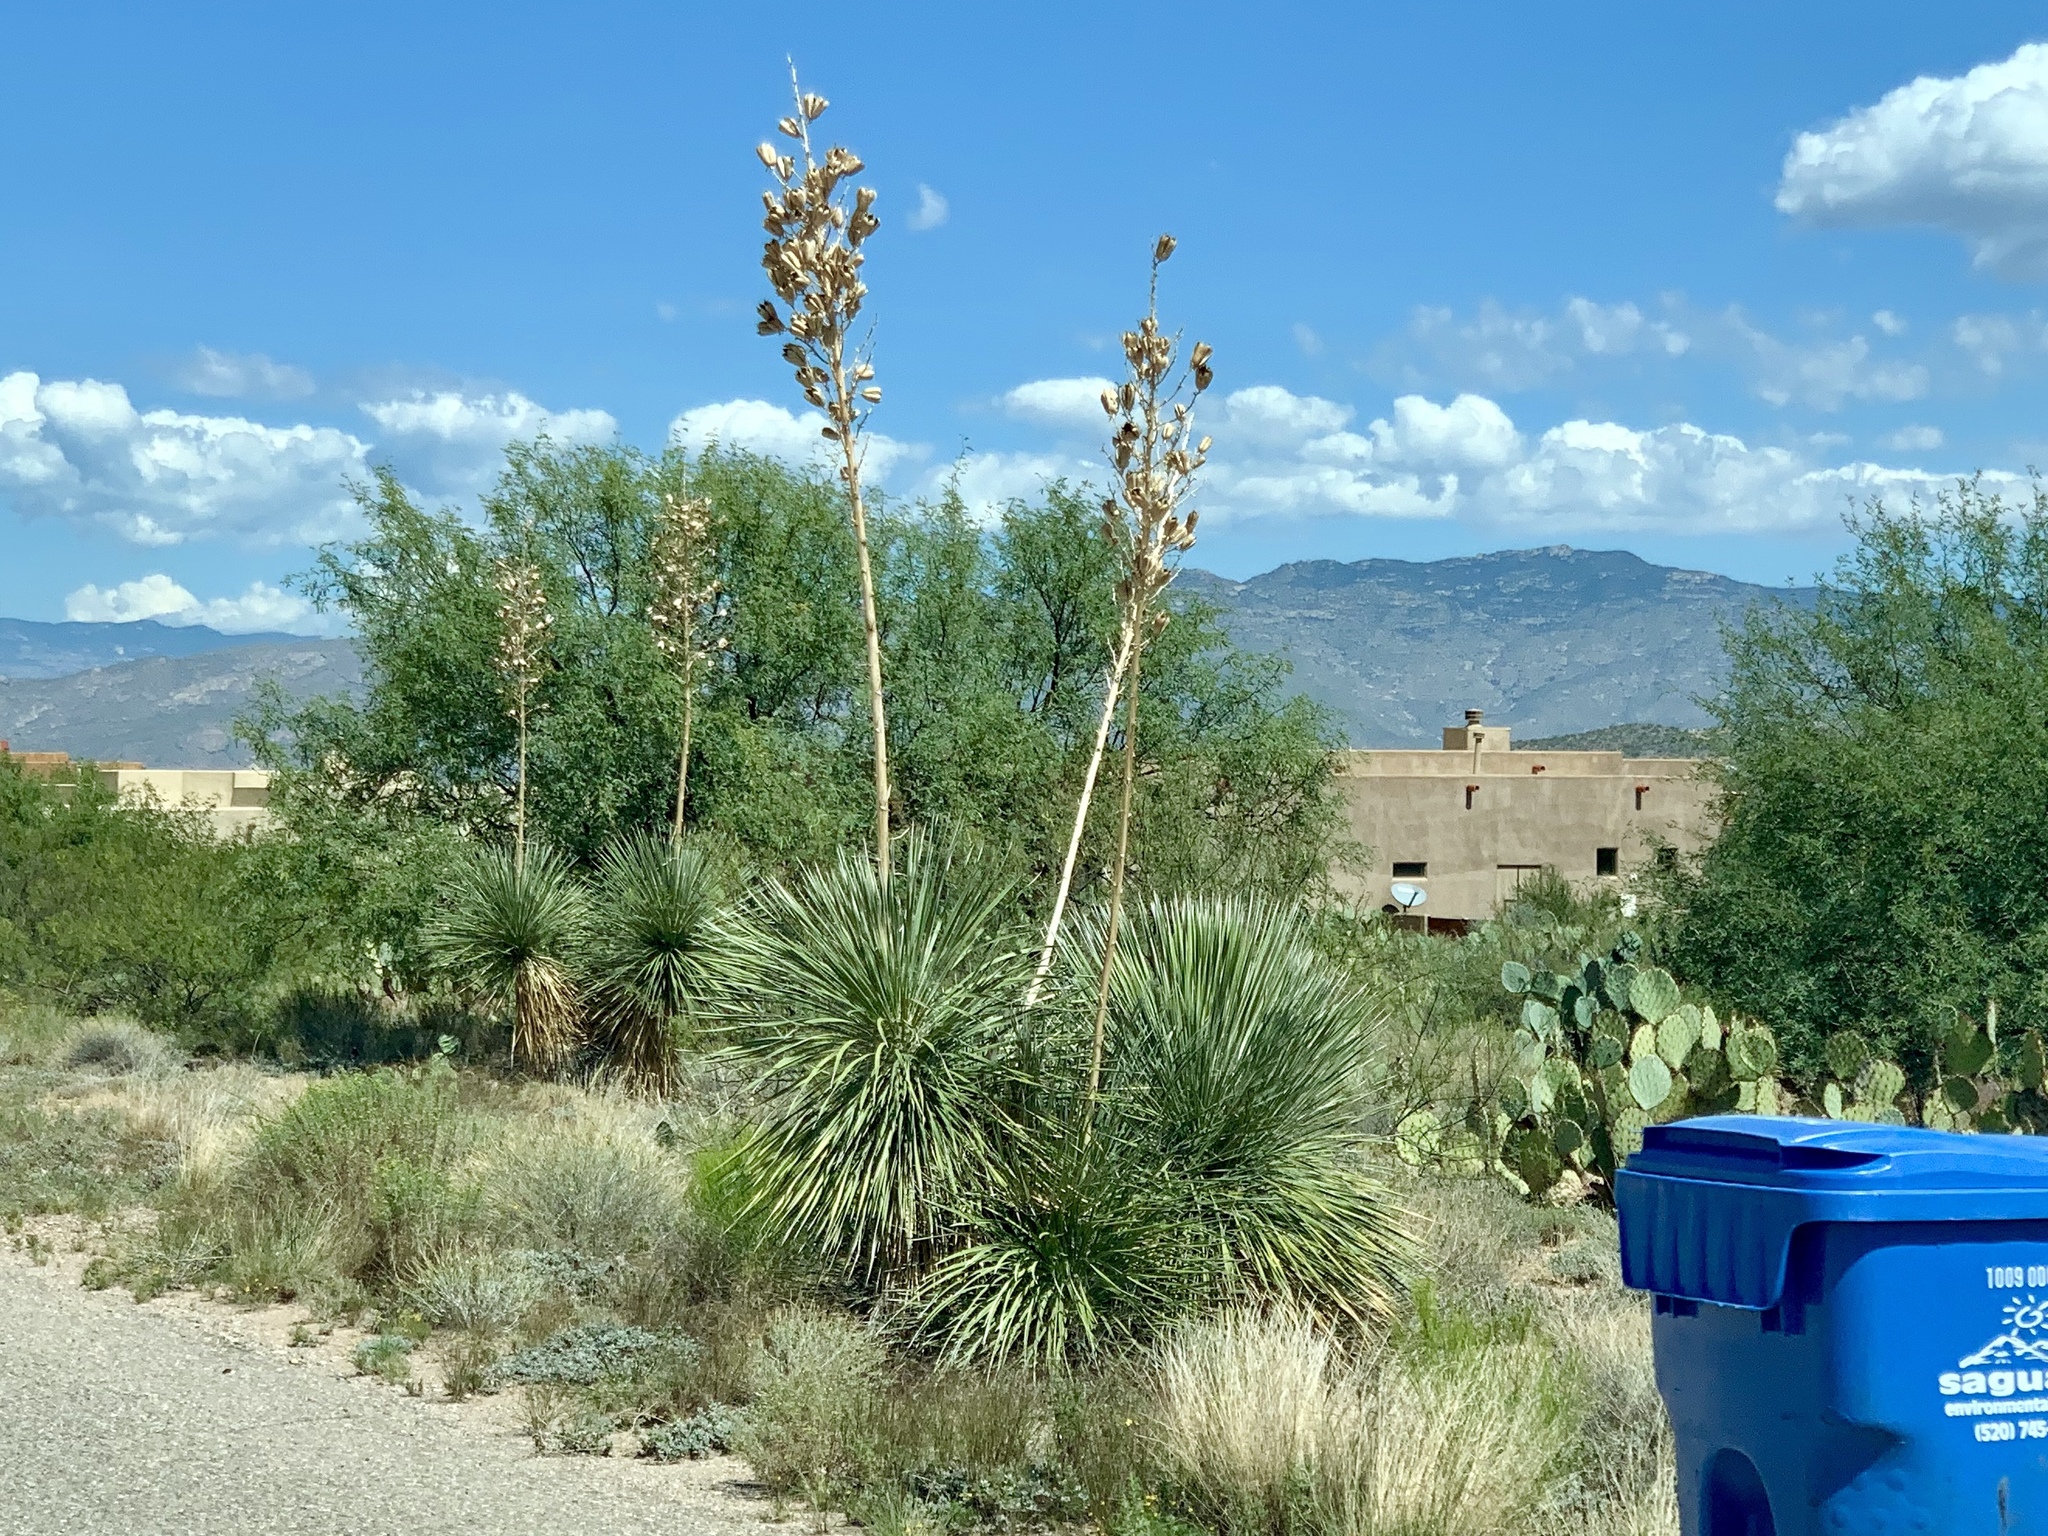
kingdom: Plantae
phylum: Tracheophyta
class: Liliopsida
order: Asparagales
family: Asparagaceae
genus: Yucca
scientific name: Yucca elata
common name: Palmella
